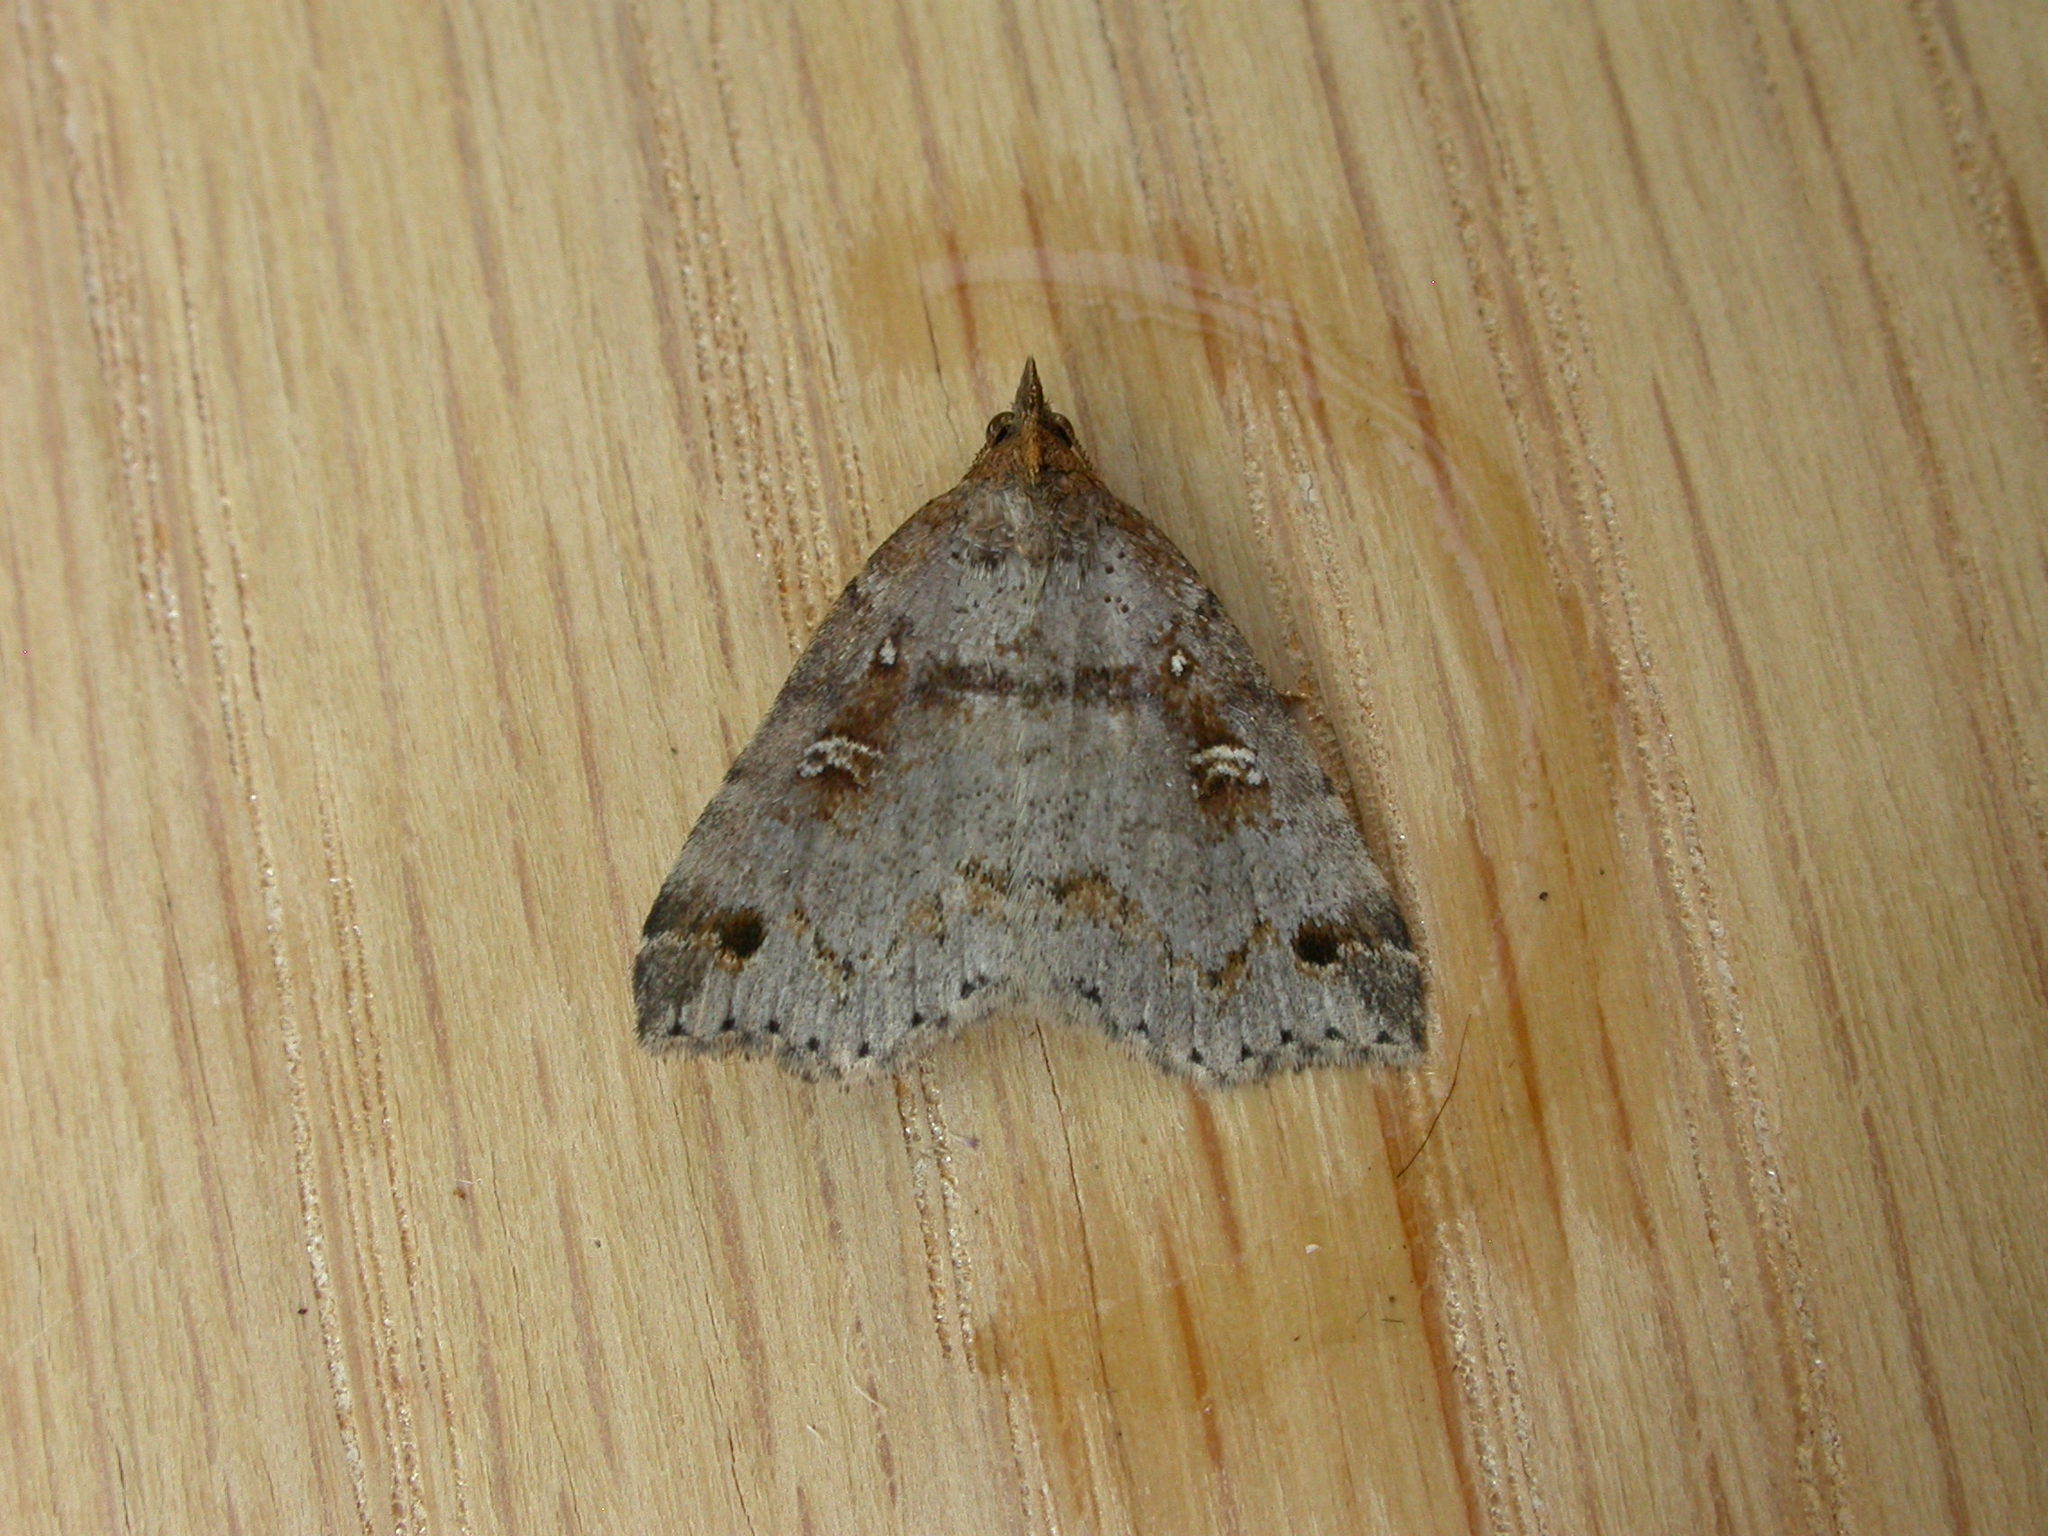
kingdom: Animalia
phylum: Arthropoda
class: Insecta
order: Lepidoptera
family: Erebidae
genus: Lithilaria
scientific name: Lithilaria ossicolor
